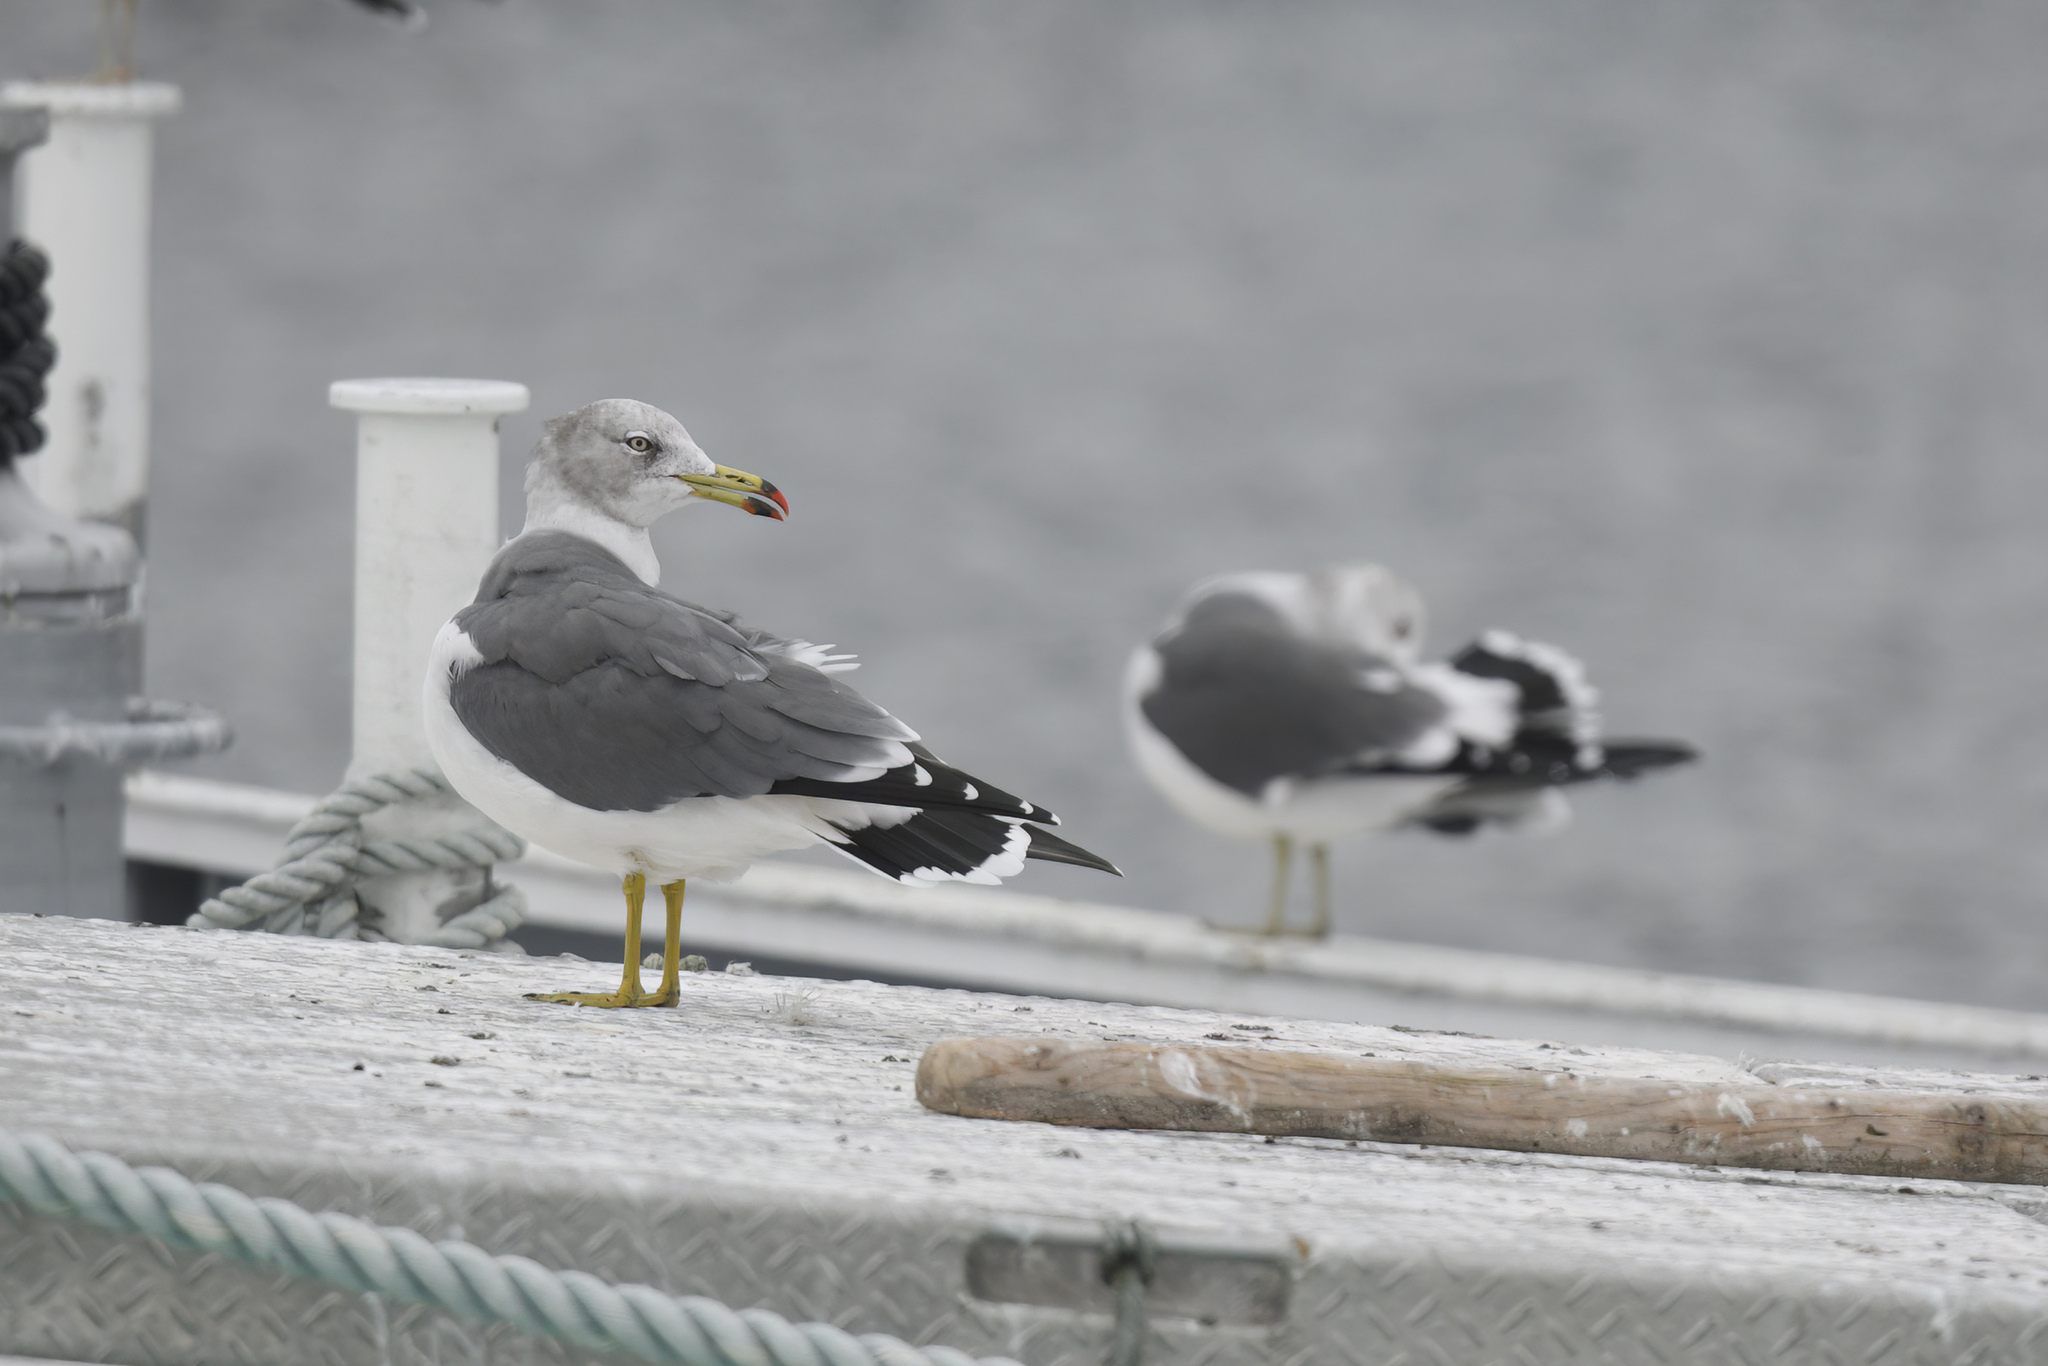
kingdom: Animalia
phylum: Chordata
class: Aves
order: Charadriiformes
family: Laridae
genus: Larus
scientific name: Larus crassirostris
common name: Black-tailed gull
